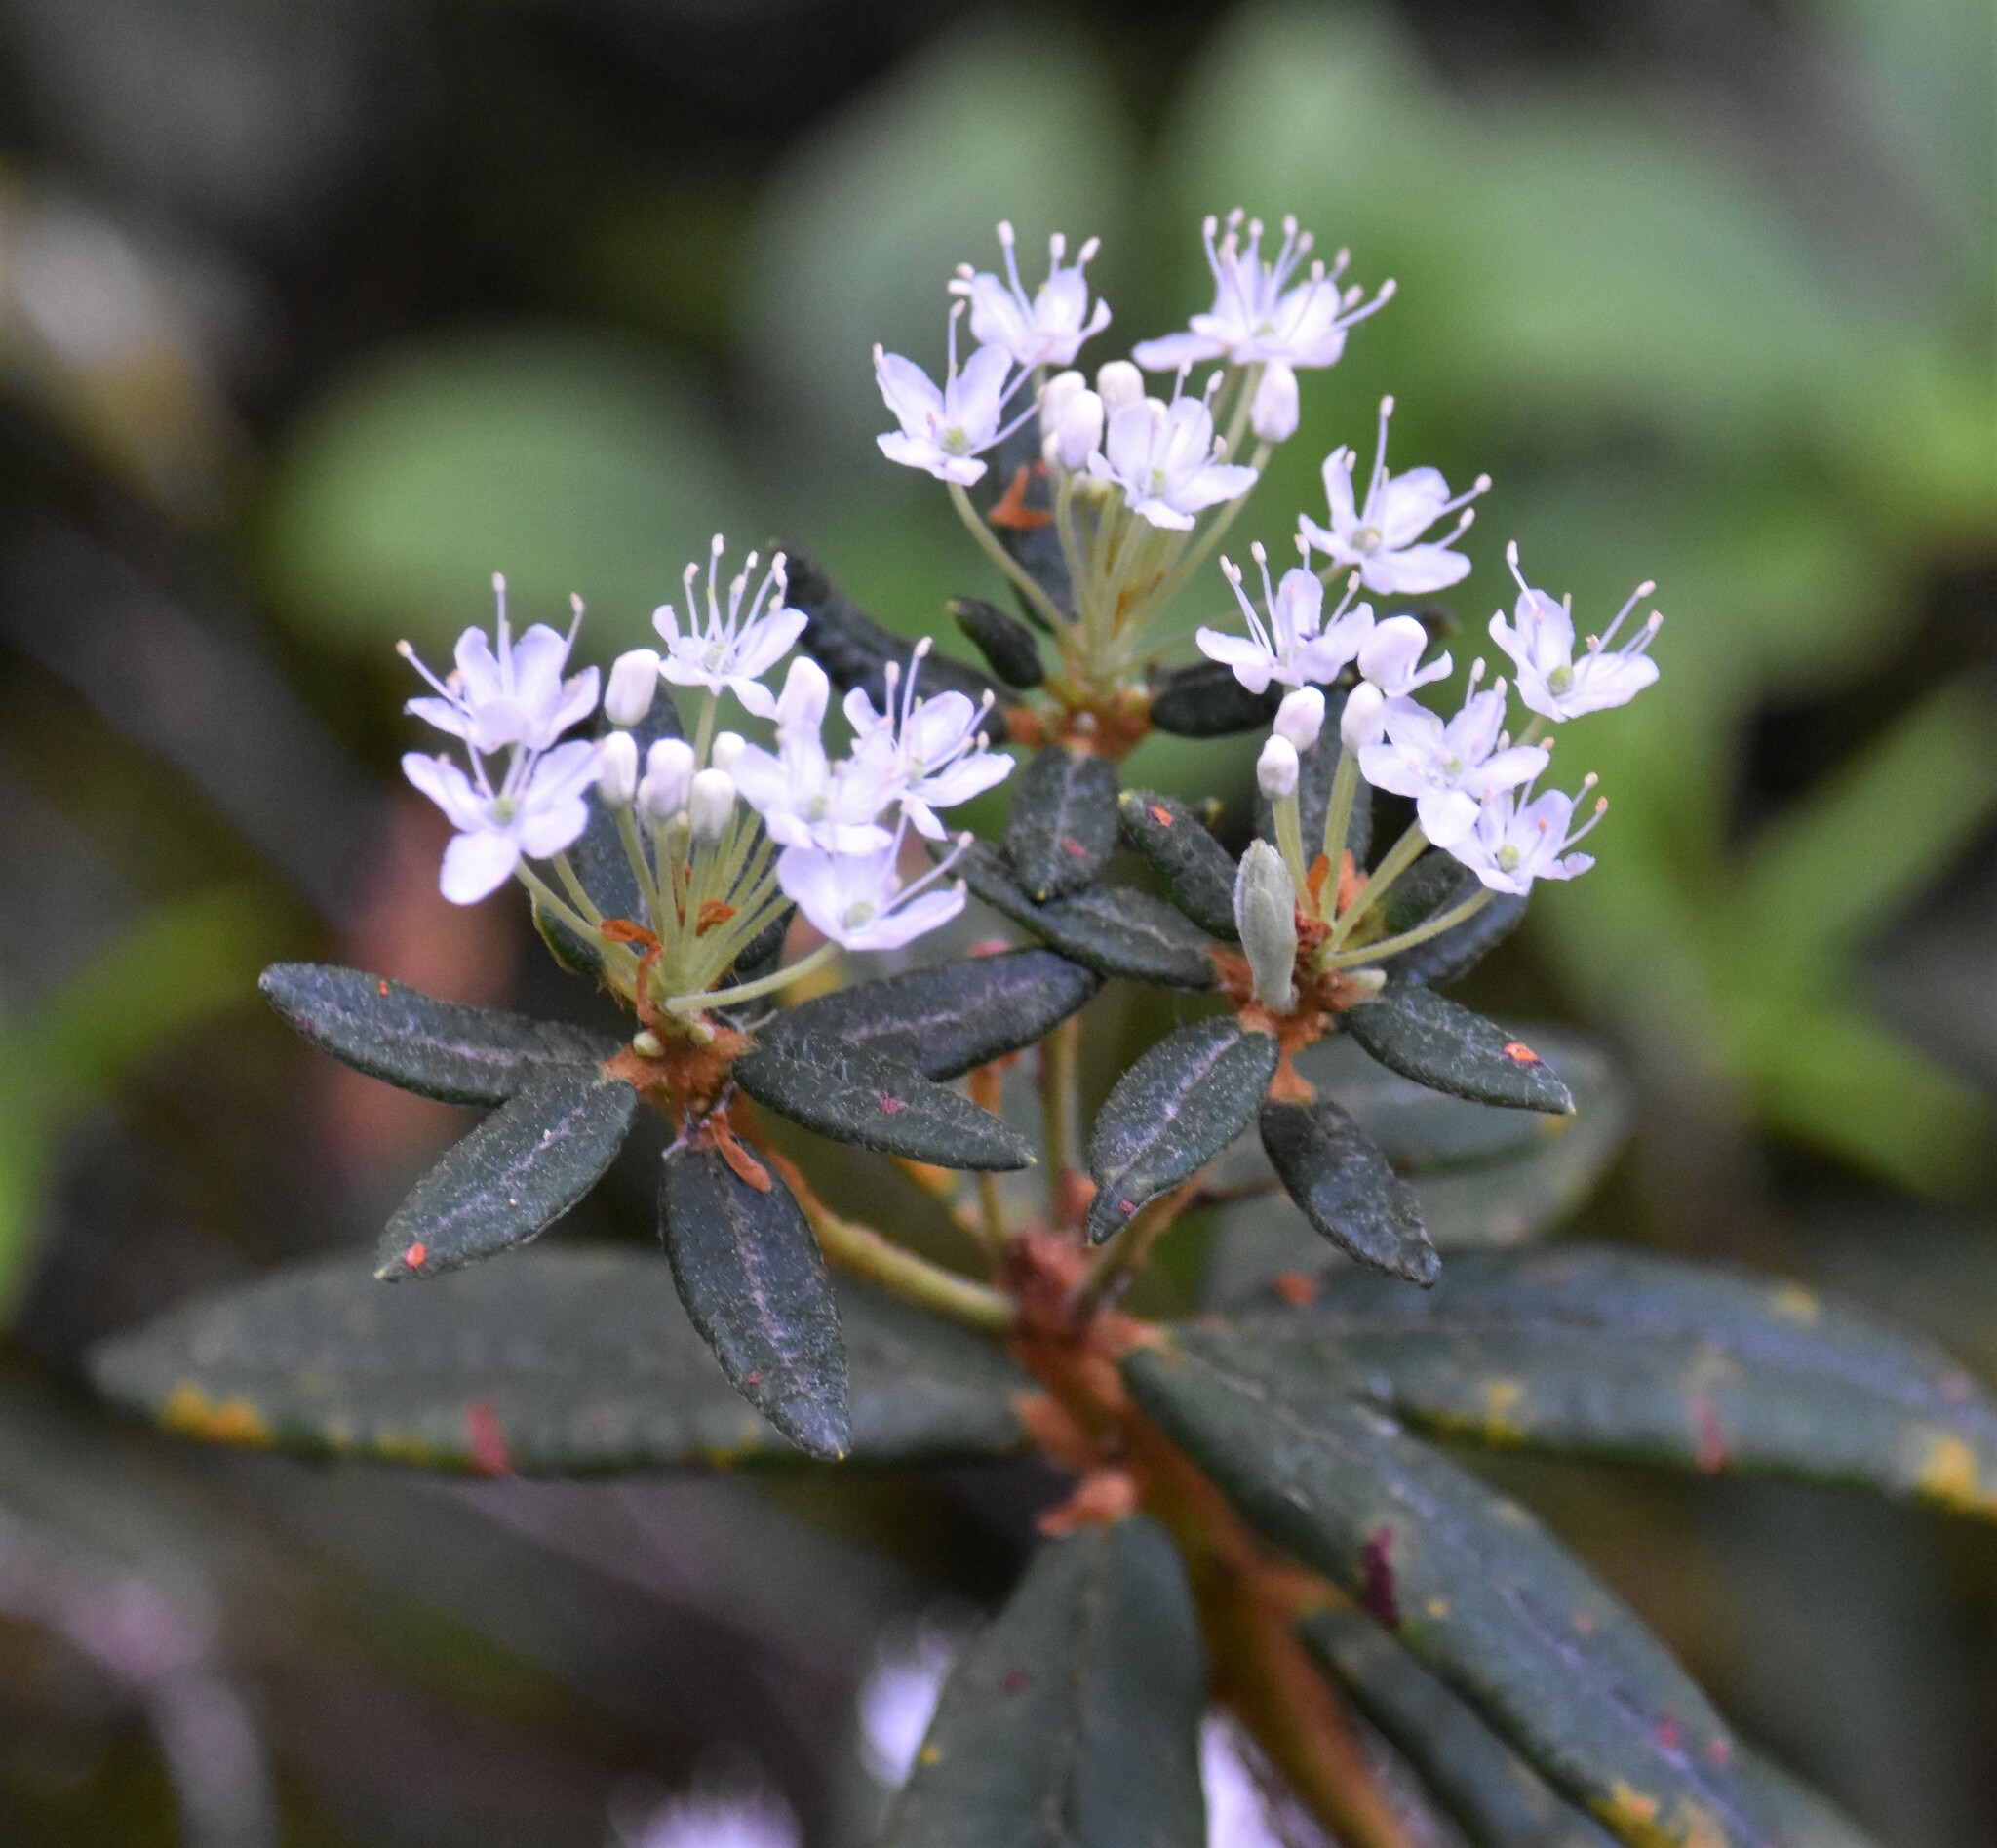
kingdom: Plantae
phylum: Tracheophyta
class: Magnoliopsida
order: Ericales
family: Ericaceae
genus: Rhododendron
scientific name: Rhododendron groenlandicum
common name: Bog labrador tea
